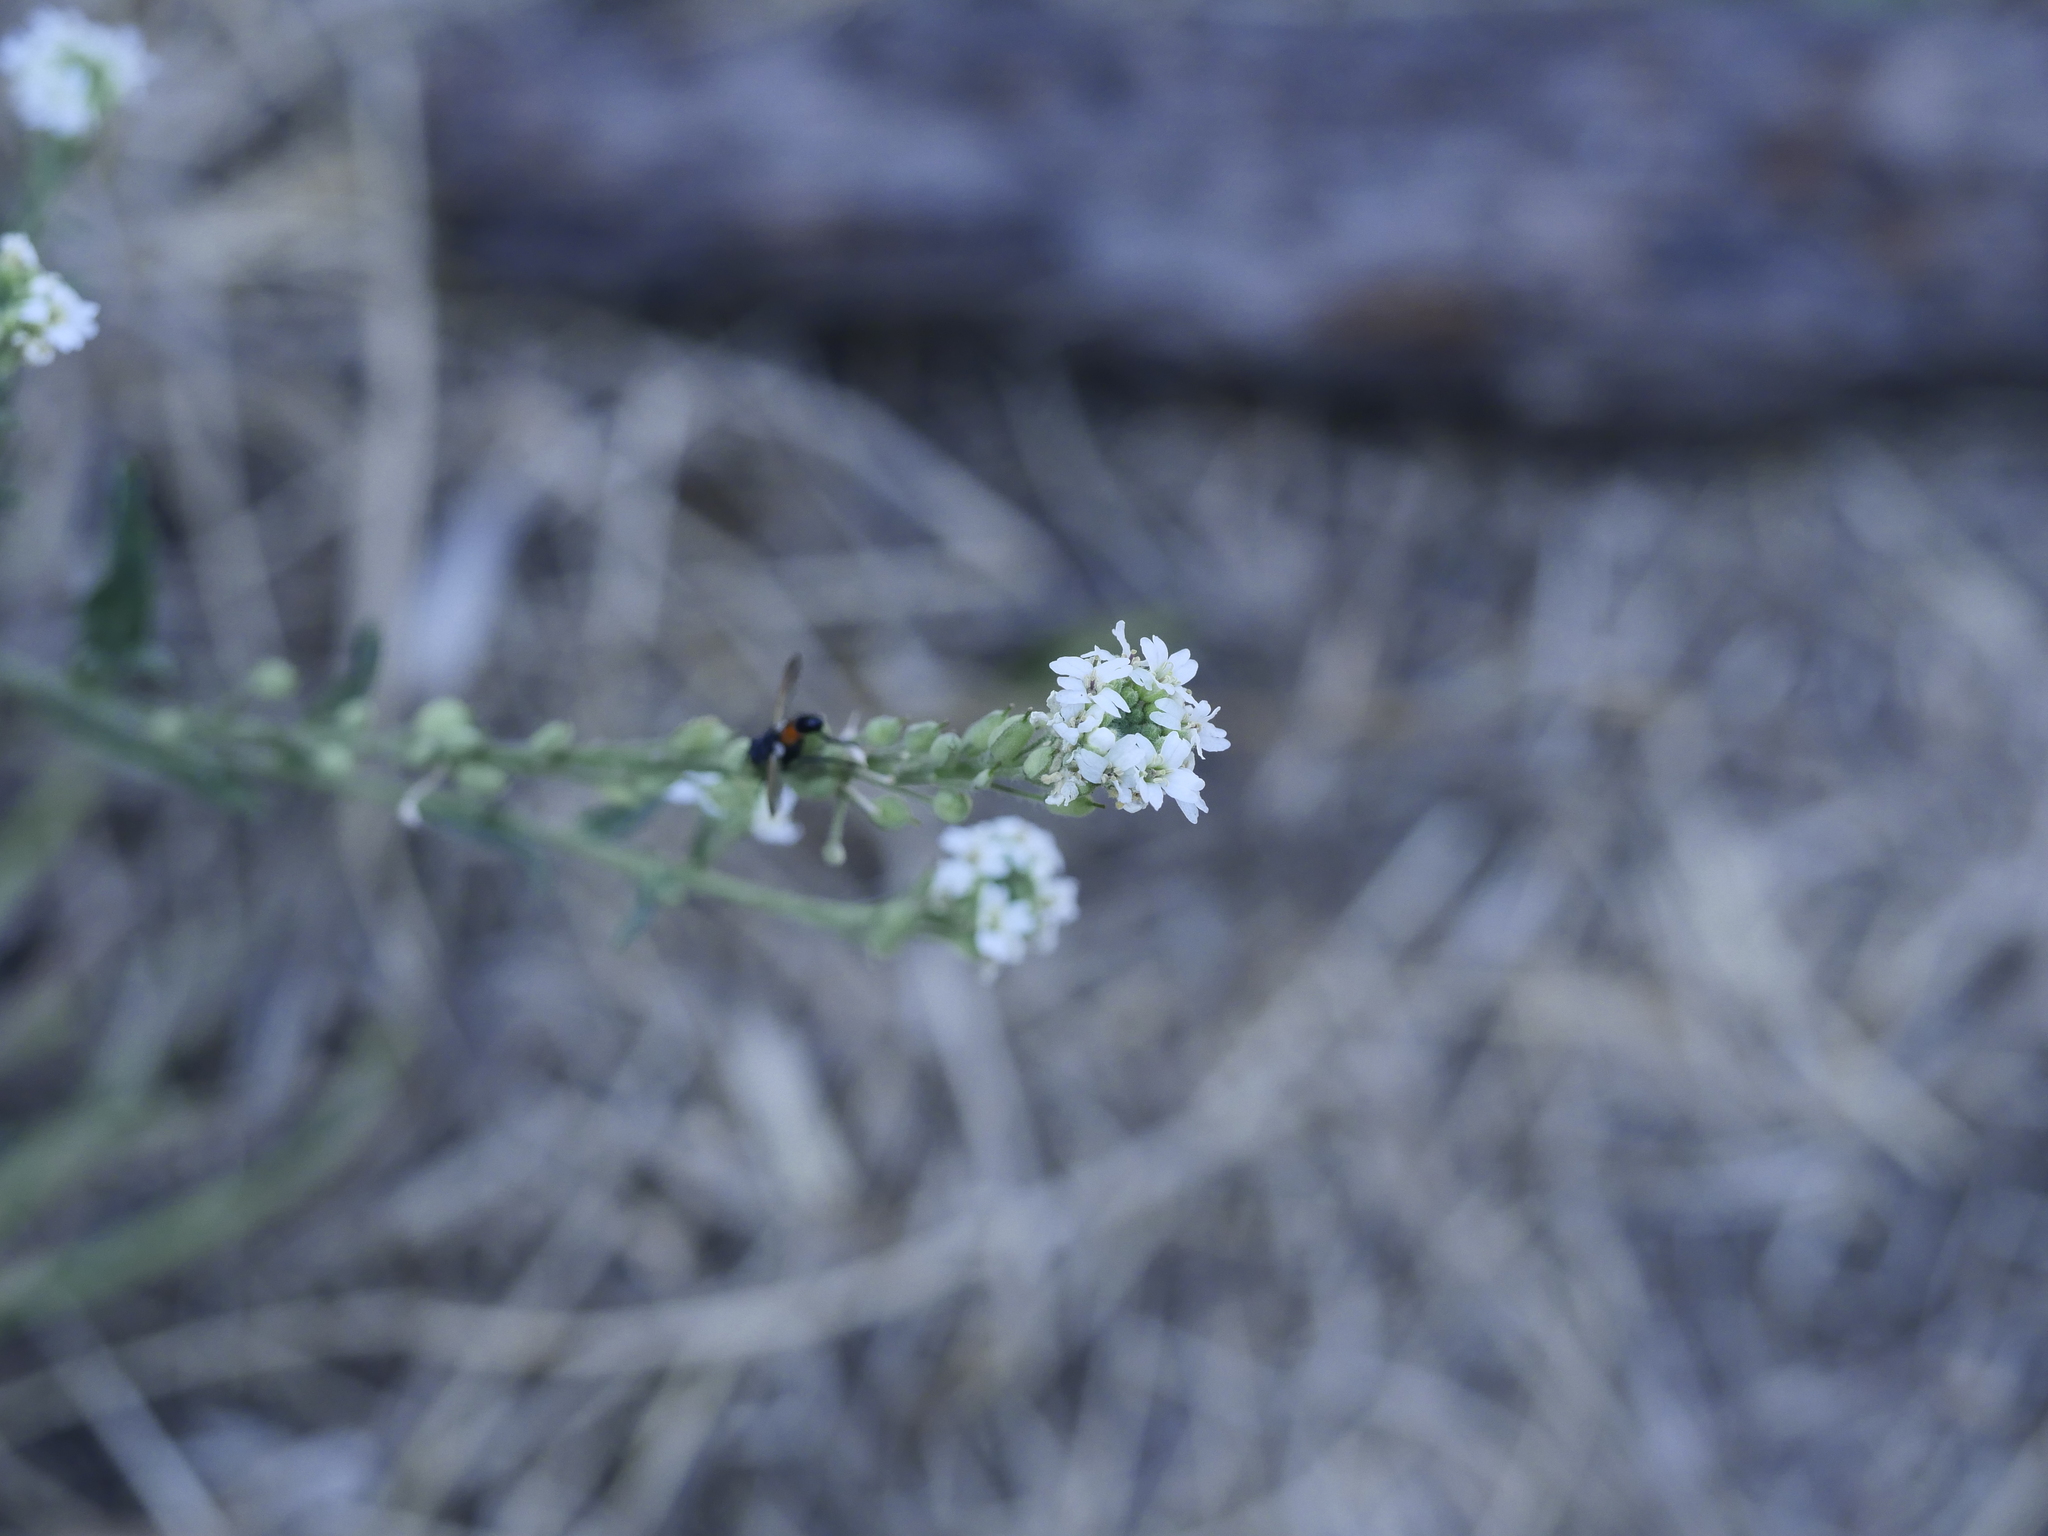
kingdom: Plantae
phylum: Tracheophyta
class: Magnoliopsida
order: Brassicales
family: Brassicaceae
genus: Berteroa
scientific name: Berteroa incana
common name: Hoary alison
